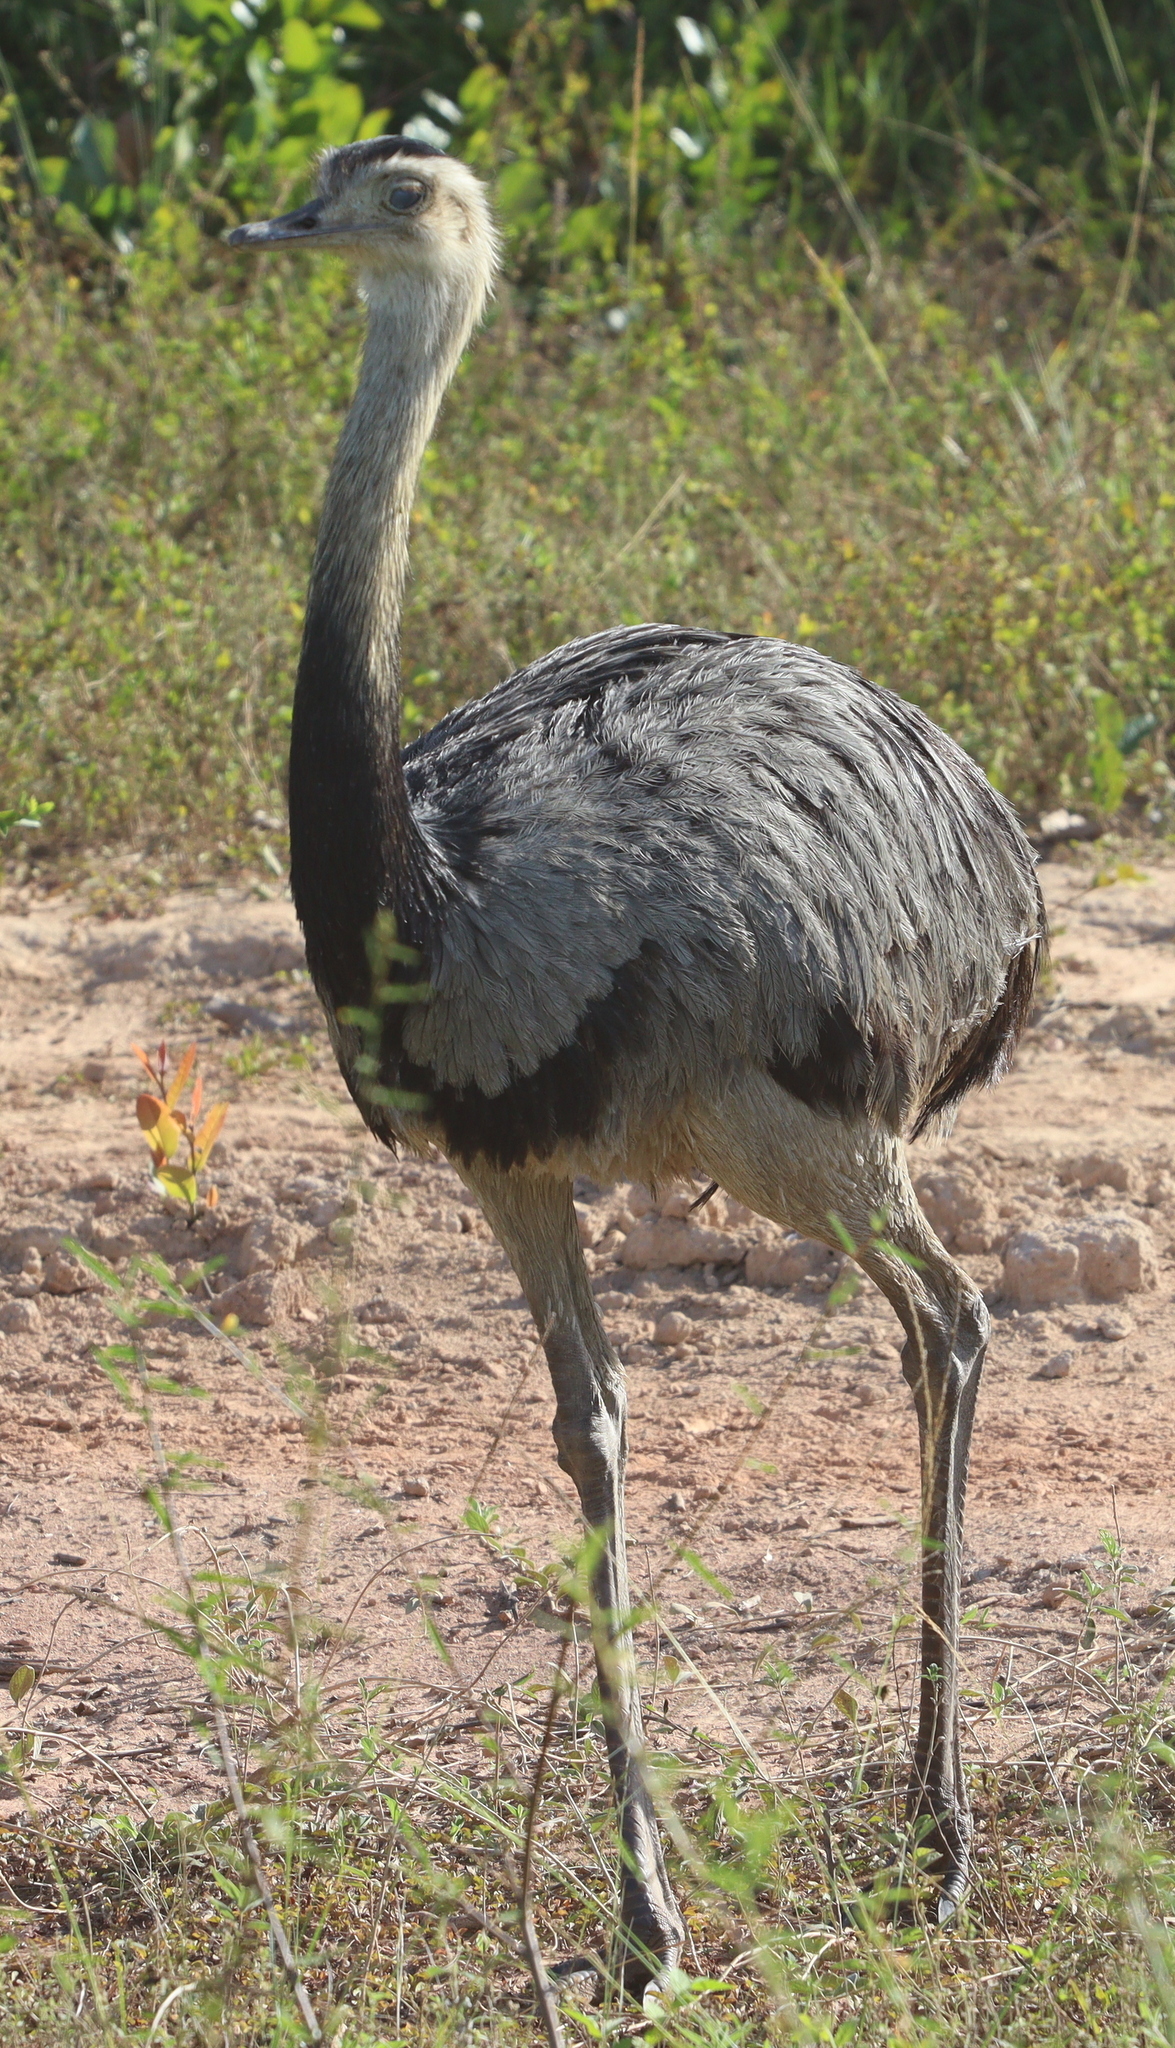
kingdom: Animalia
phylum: Chordata
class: Aves
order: Rheiformes
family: Rheidae
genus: Rhea
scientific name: Rhea americana
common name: Greater rhea
